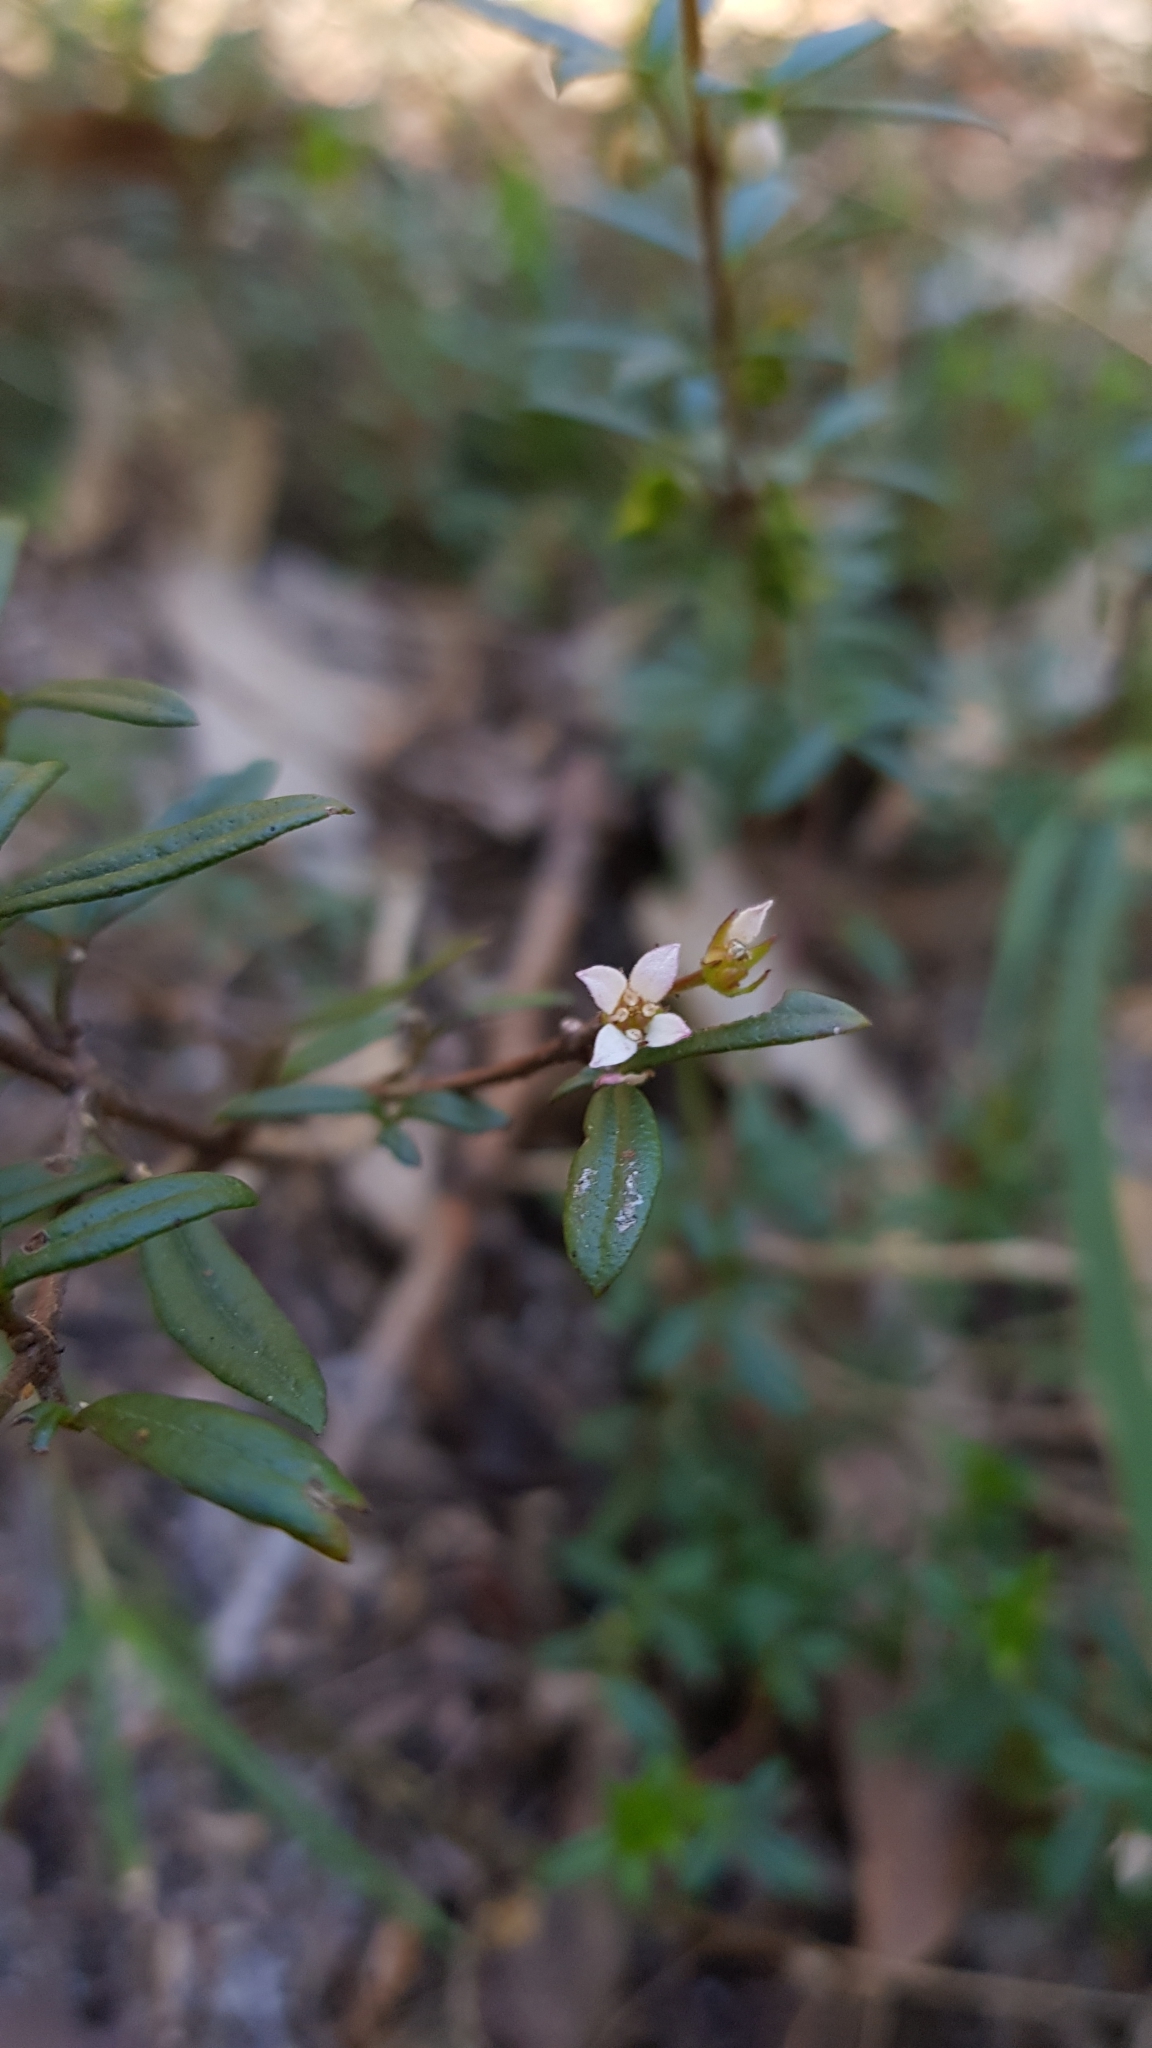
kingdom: Plantae
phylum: Tracheophyta
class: Magnoliopsida
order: Sapindales
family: Rutaceae
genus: Zieria
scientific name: Zieria pilosa
